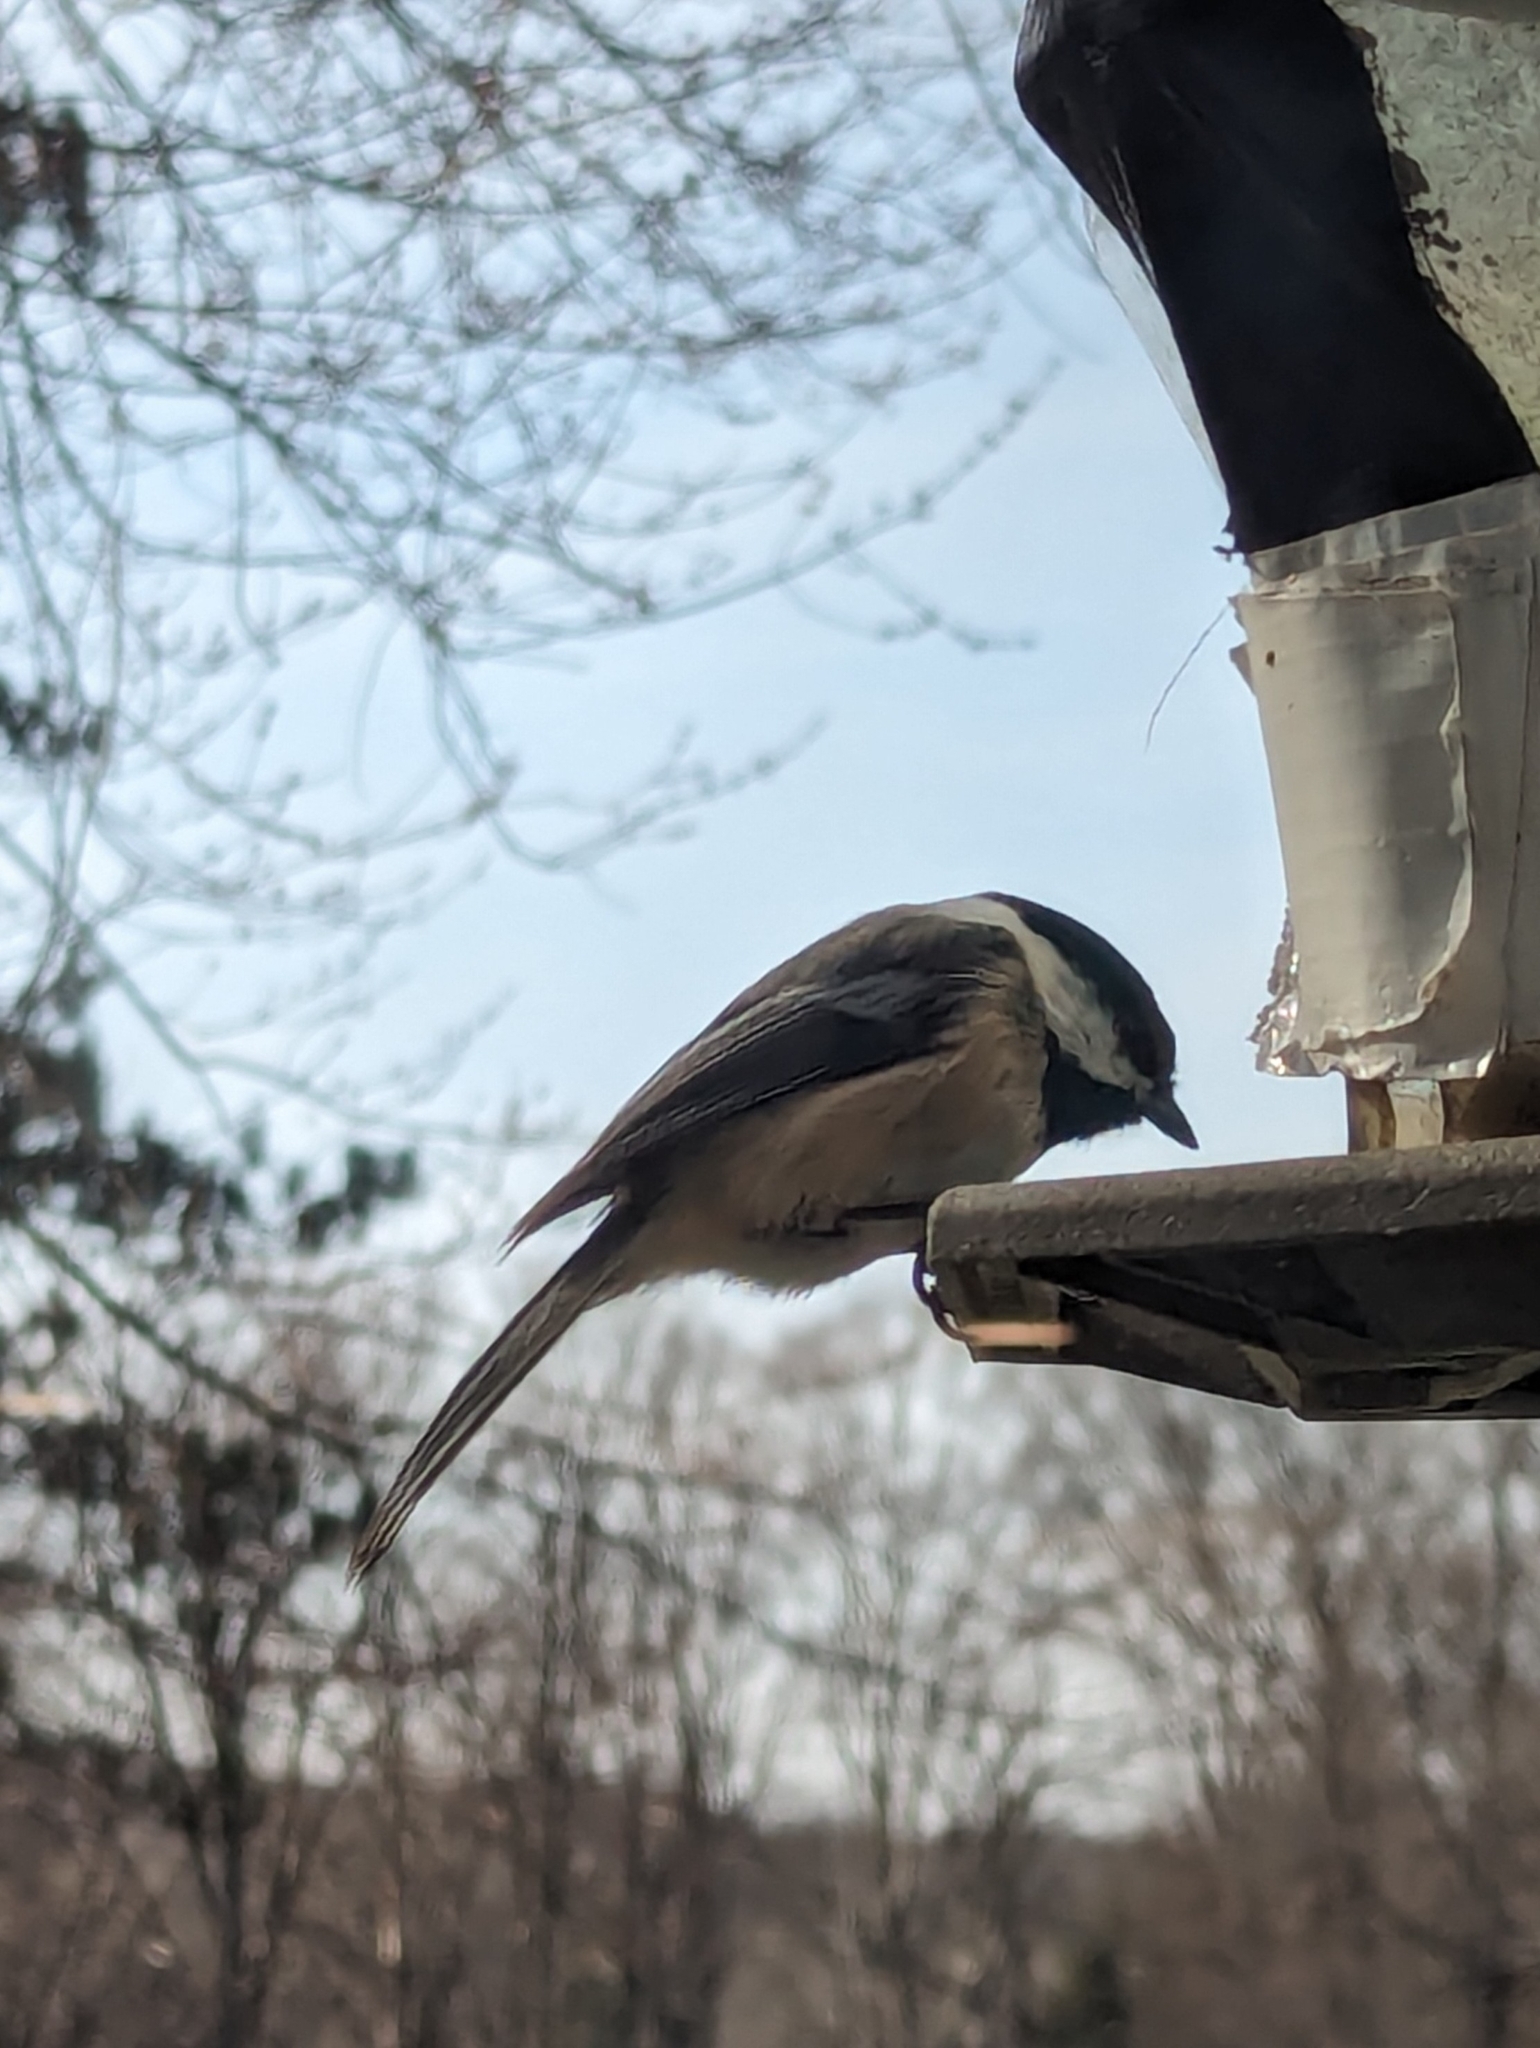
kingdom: Animalia
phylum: Chordata
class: Aves
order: Passeriformes
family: Paridae
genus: Poecile
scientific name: Poecile atricapillus
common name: Black-capped chickadee
